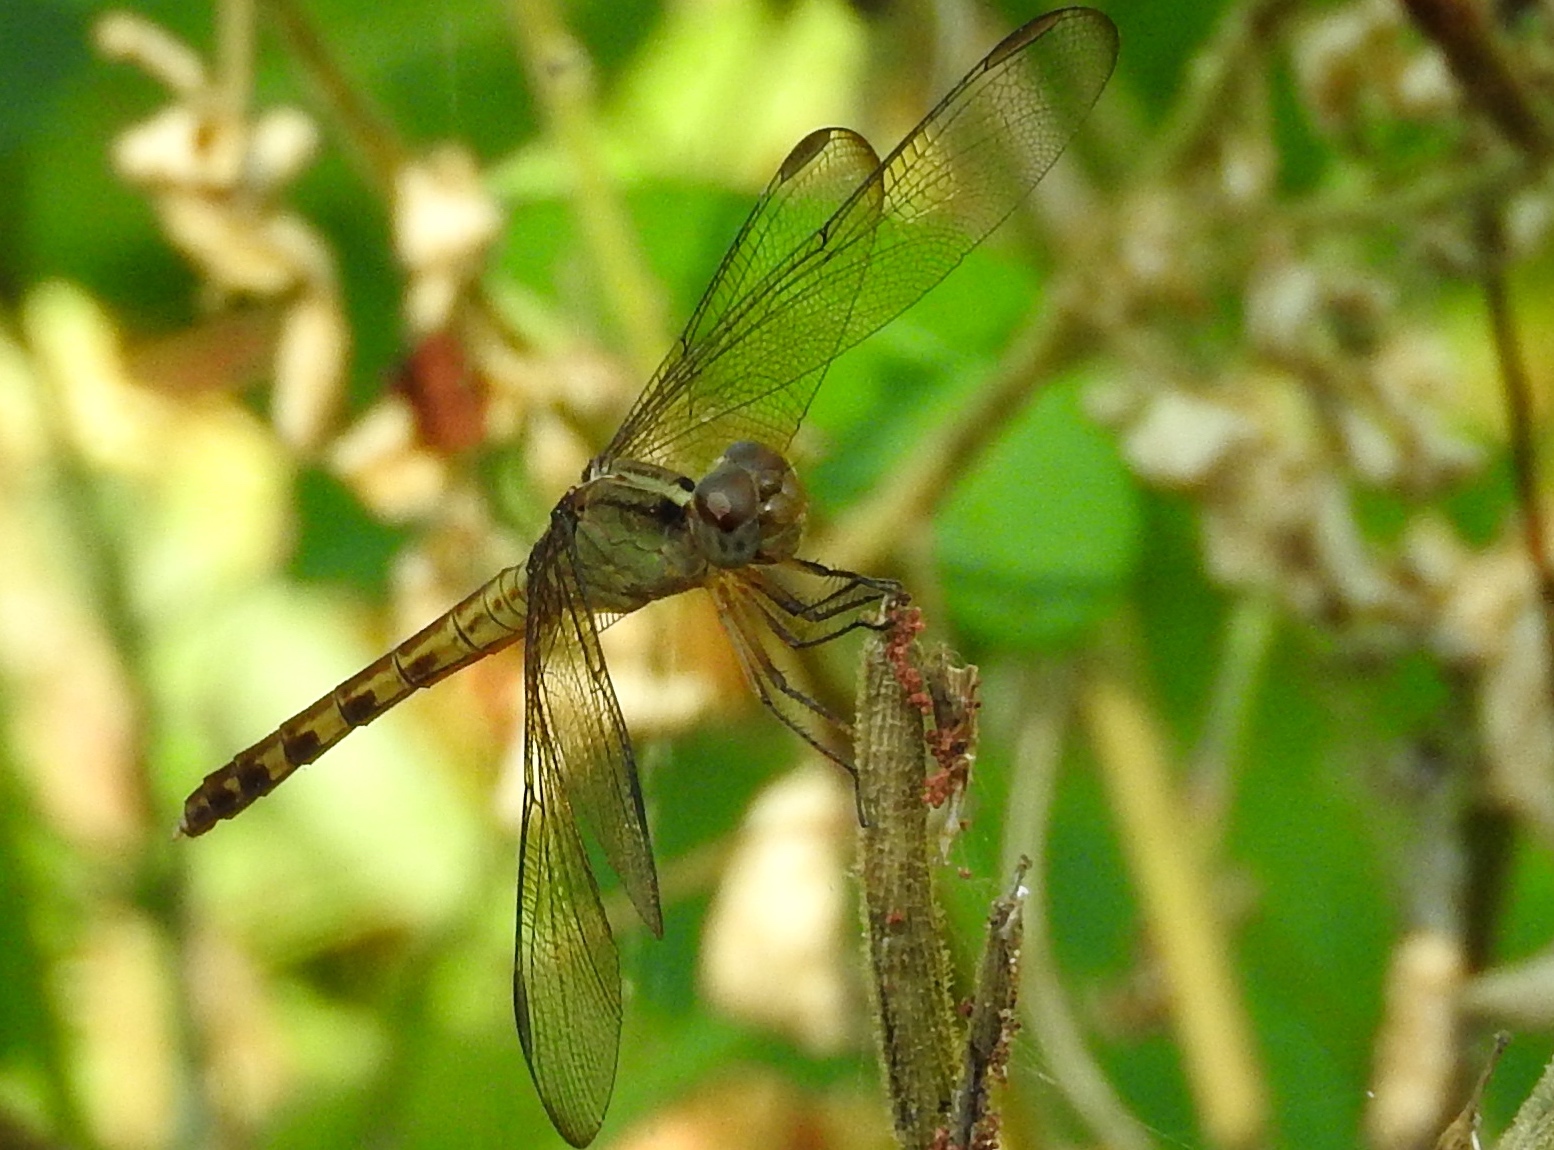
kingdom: Animalia
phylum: Arthropoda
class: Insecta
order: Odonata
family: Libellulidae
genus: Erythrodiplax
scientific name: Erythrodiplax
